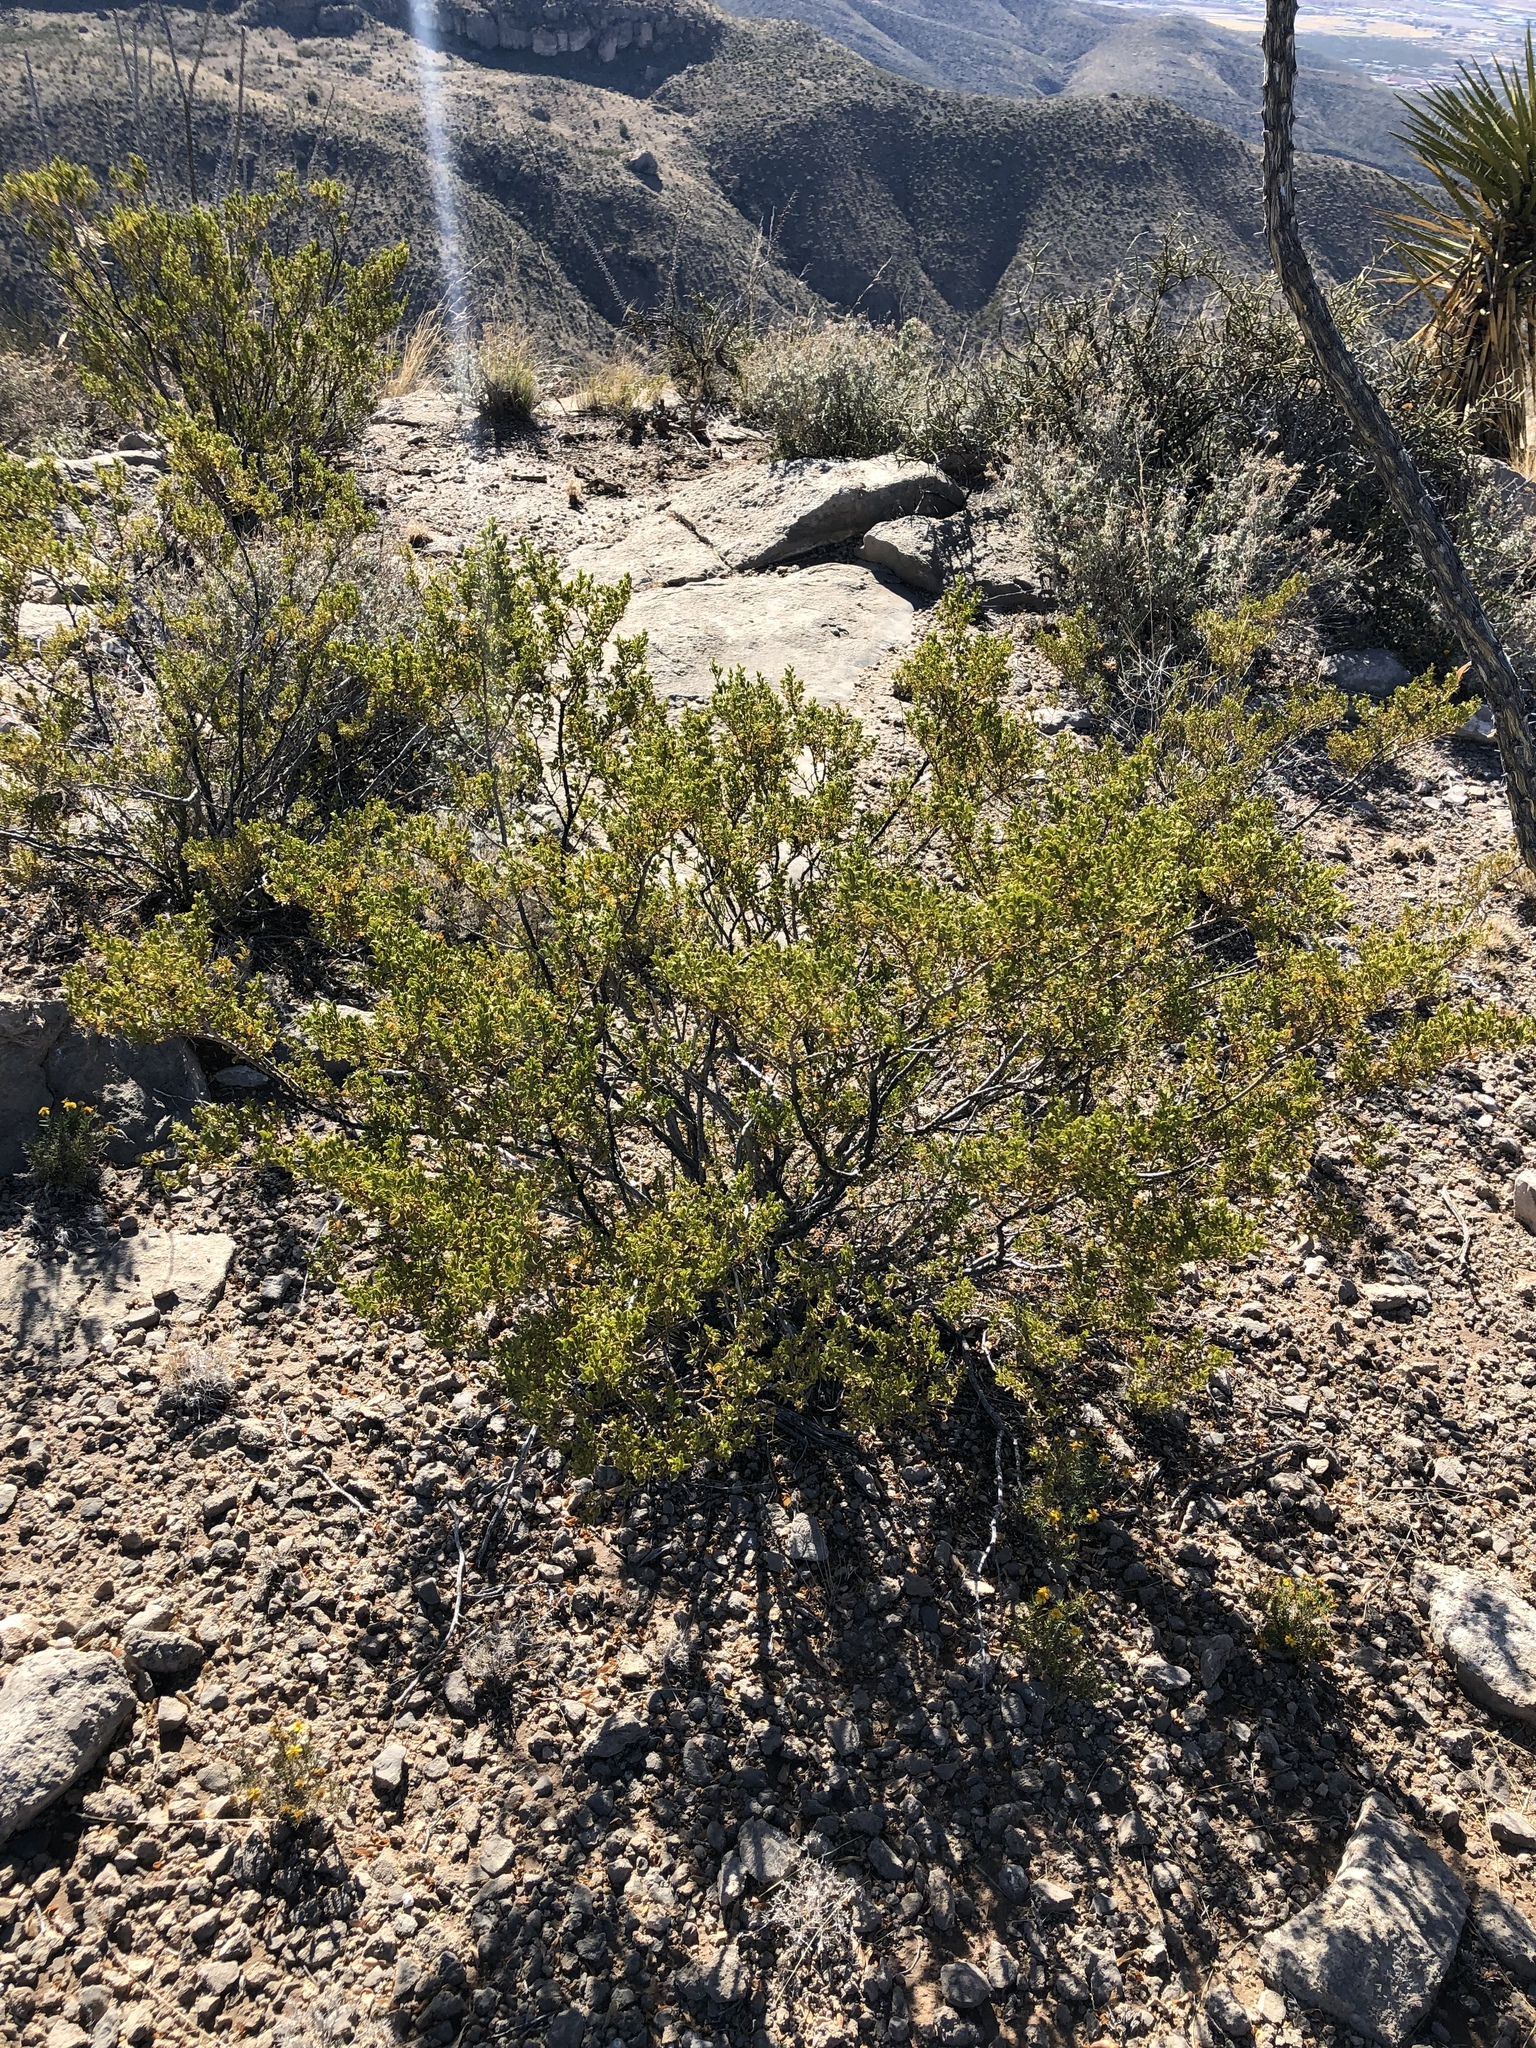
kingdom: Plantae
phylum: Tracheophyta
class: Magnoliopsida
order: Zygophyllales
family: Zygophyllaceae
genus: Larrea
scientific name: Larrea tridentata
